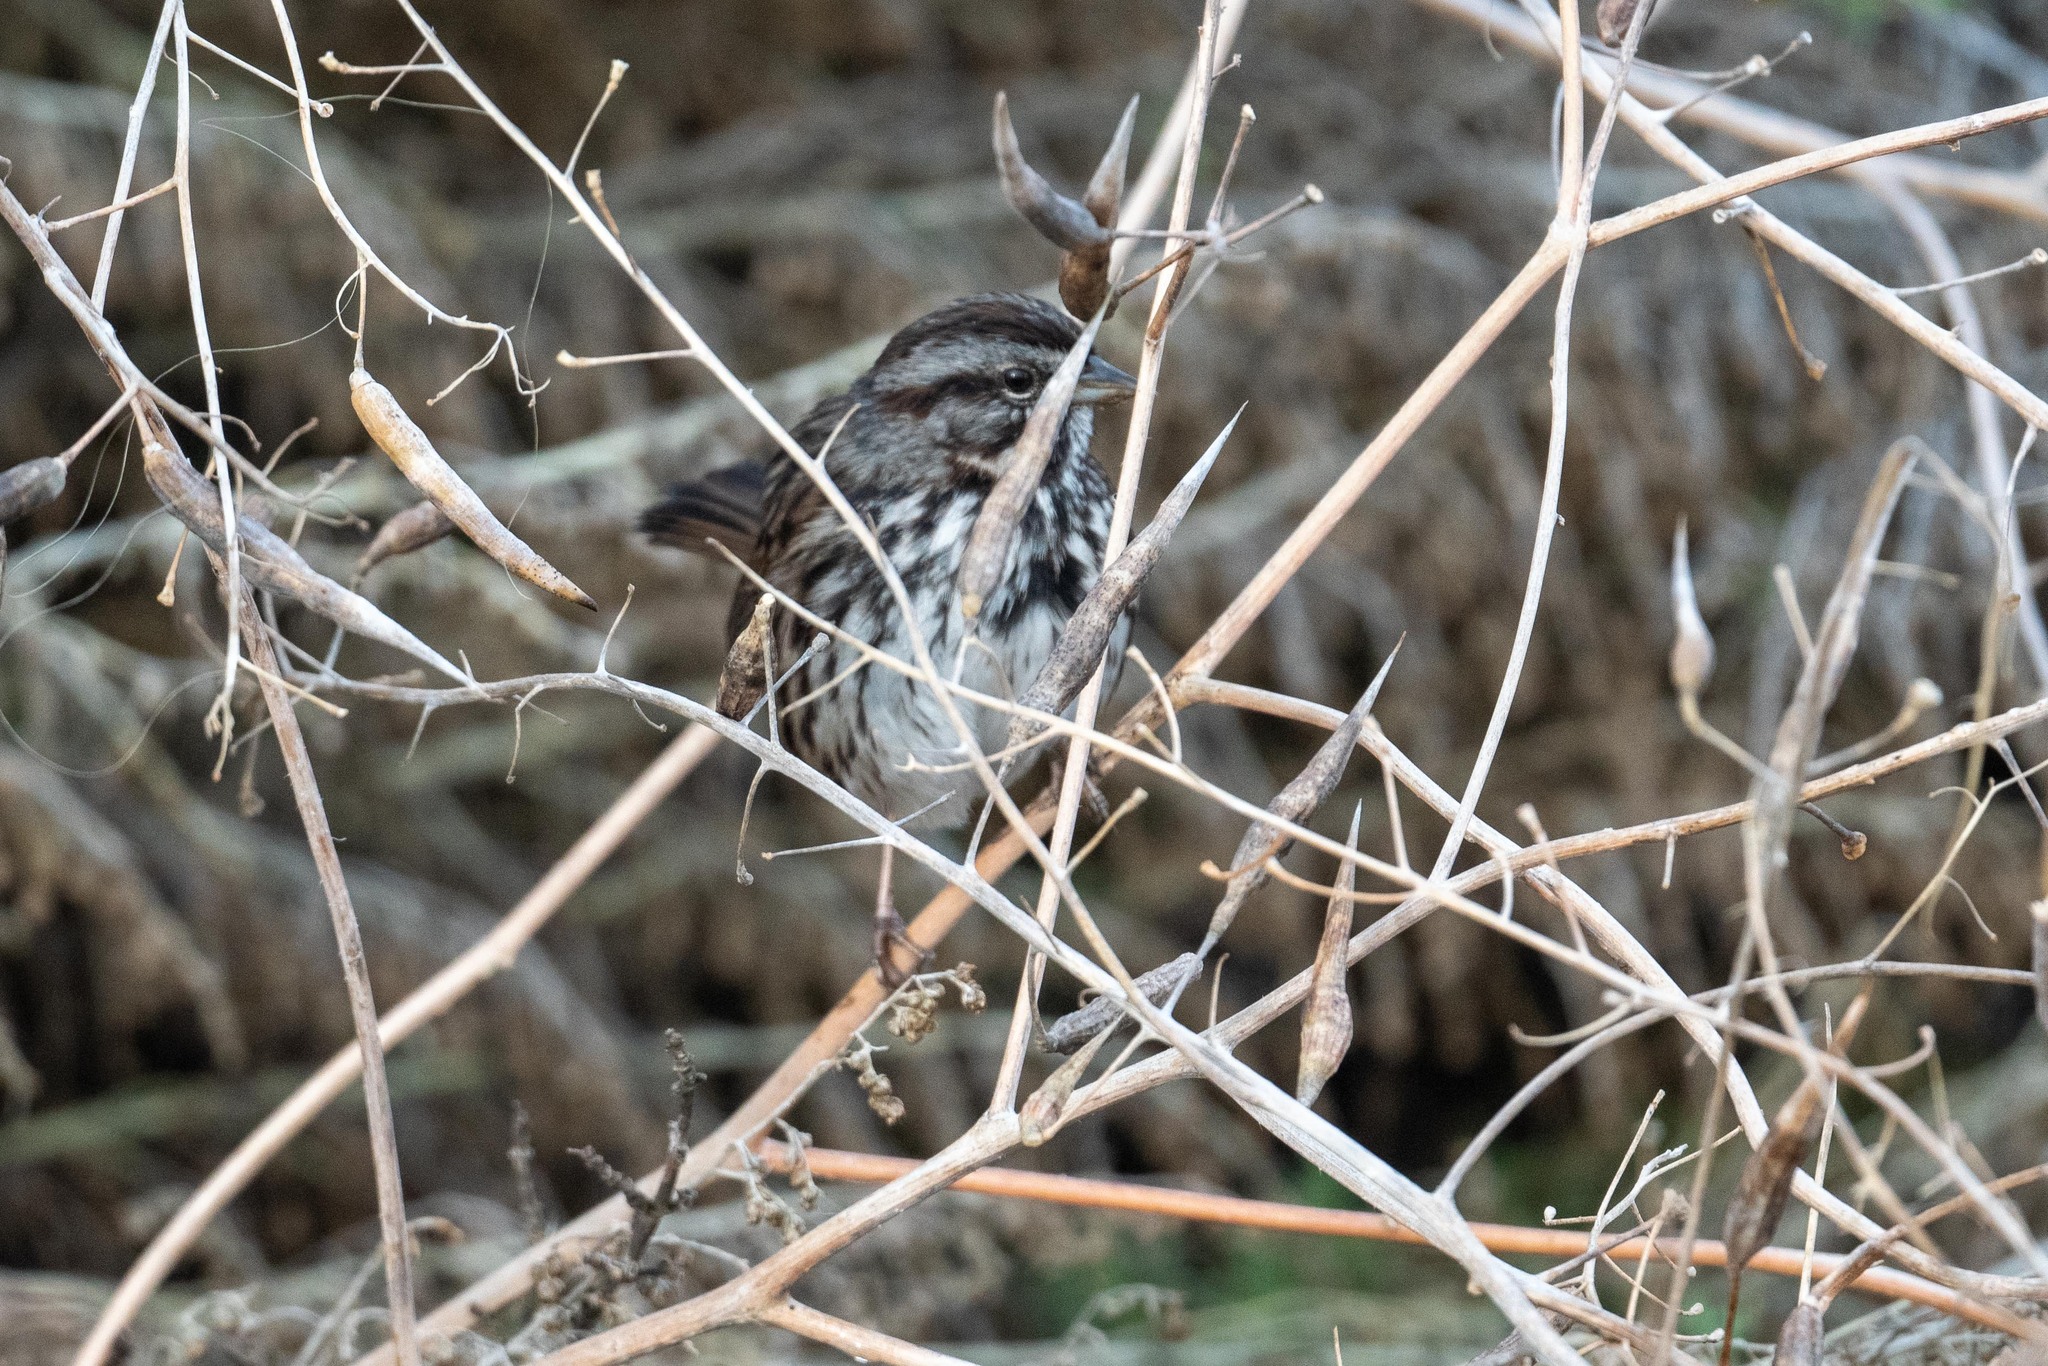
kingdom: Animalia
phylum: Chordata
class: Aves
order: Passeriformes
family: Passerellidae
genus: Melospiza
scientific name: Melospiza melodia
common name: Song sparrow
